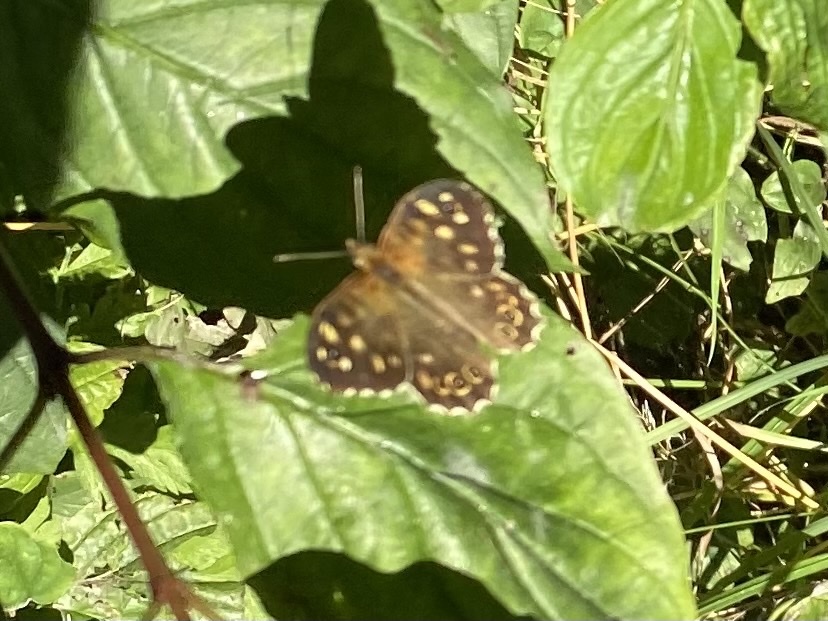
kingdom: Animalia
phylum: Arthropoda
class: Insecta
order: Lepidoptera
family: Nymphalidae
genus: Pararge
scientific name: Pararge aegeria
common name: Speckled wood
